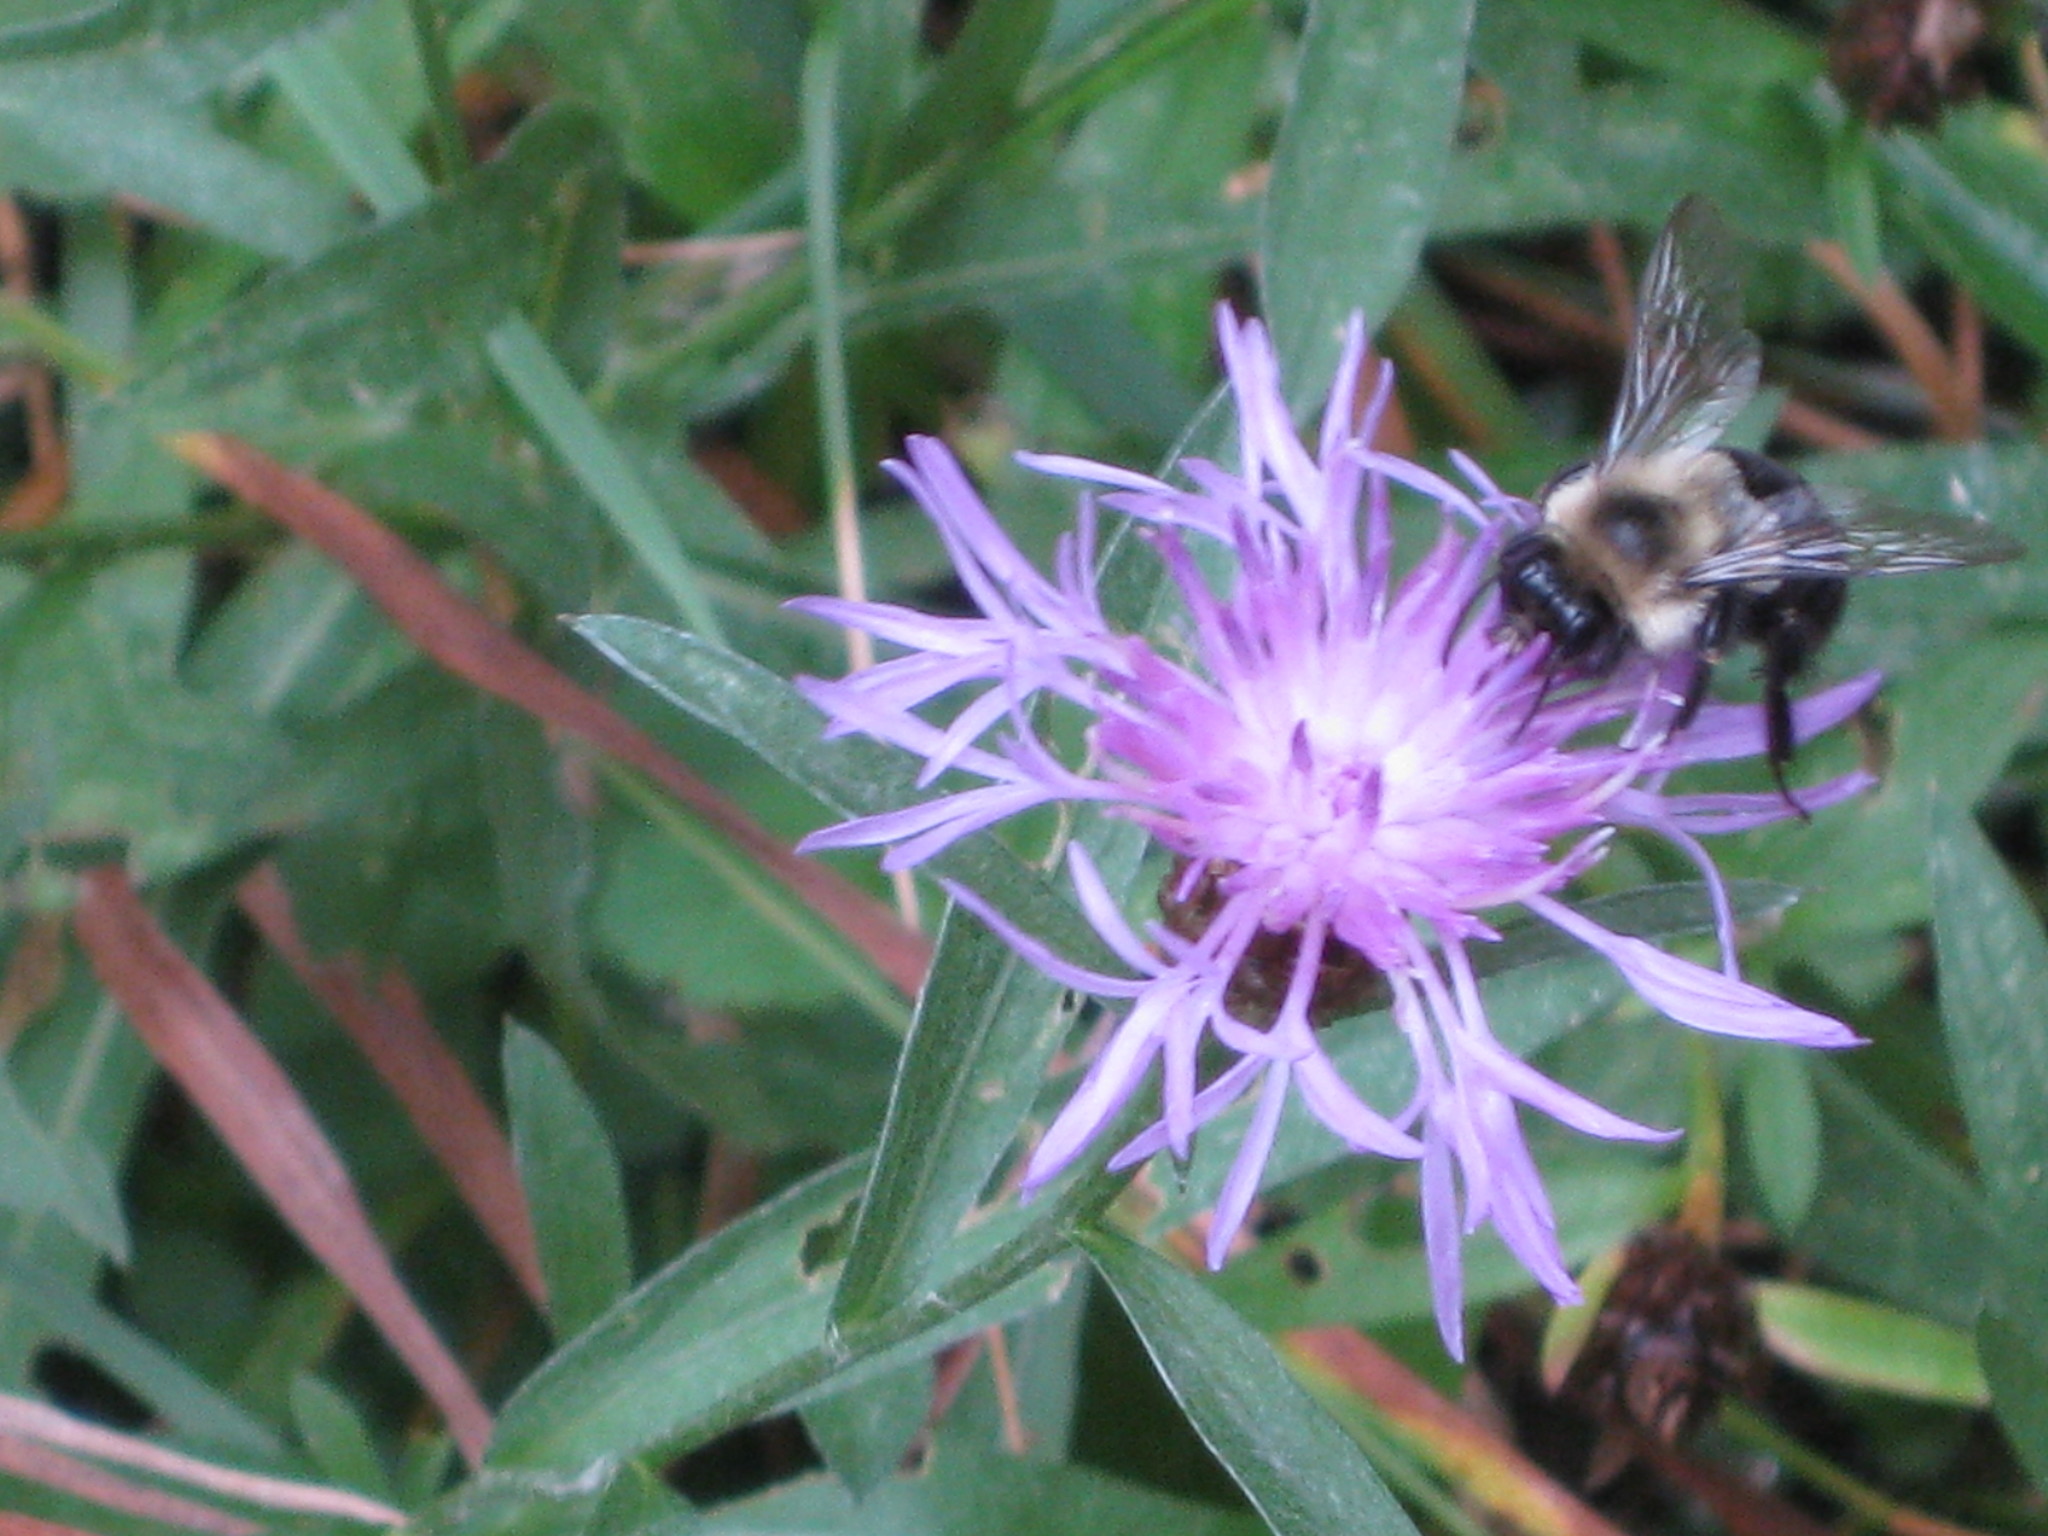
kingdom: Plantae
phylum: Tracheophyta
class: Magnoliopsida
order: Asterales
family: Asteraceae
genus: Centaurea
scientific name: Centaurea stoebe
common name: Spotted knapweed
